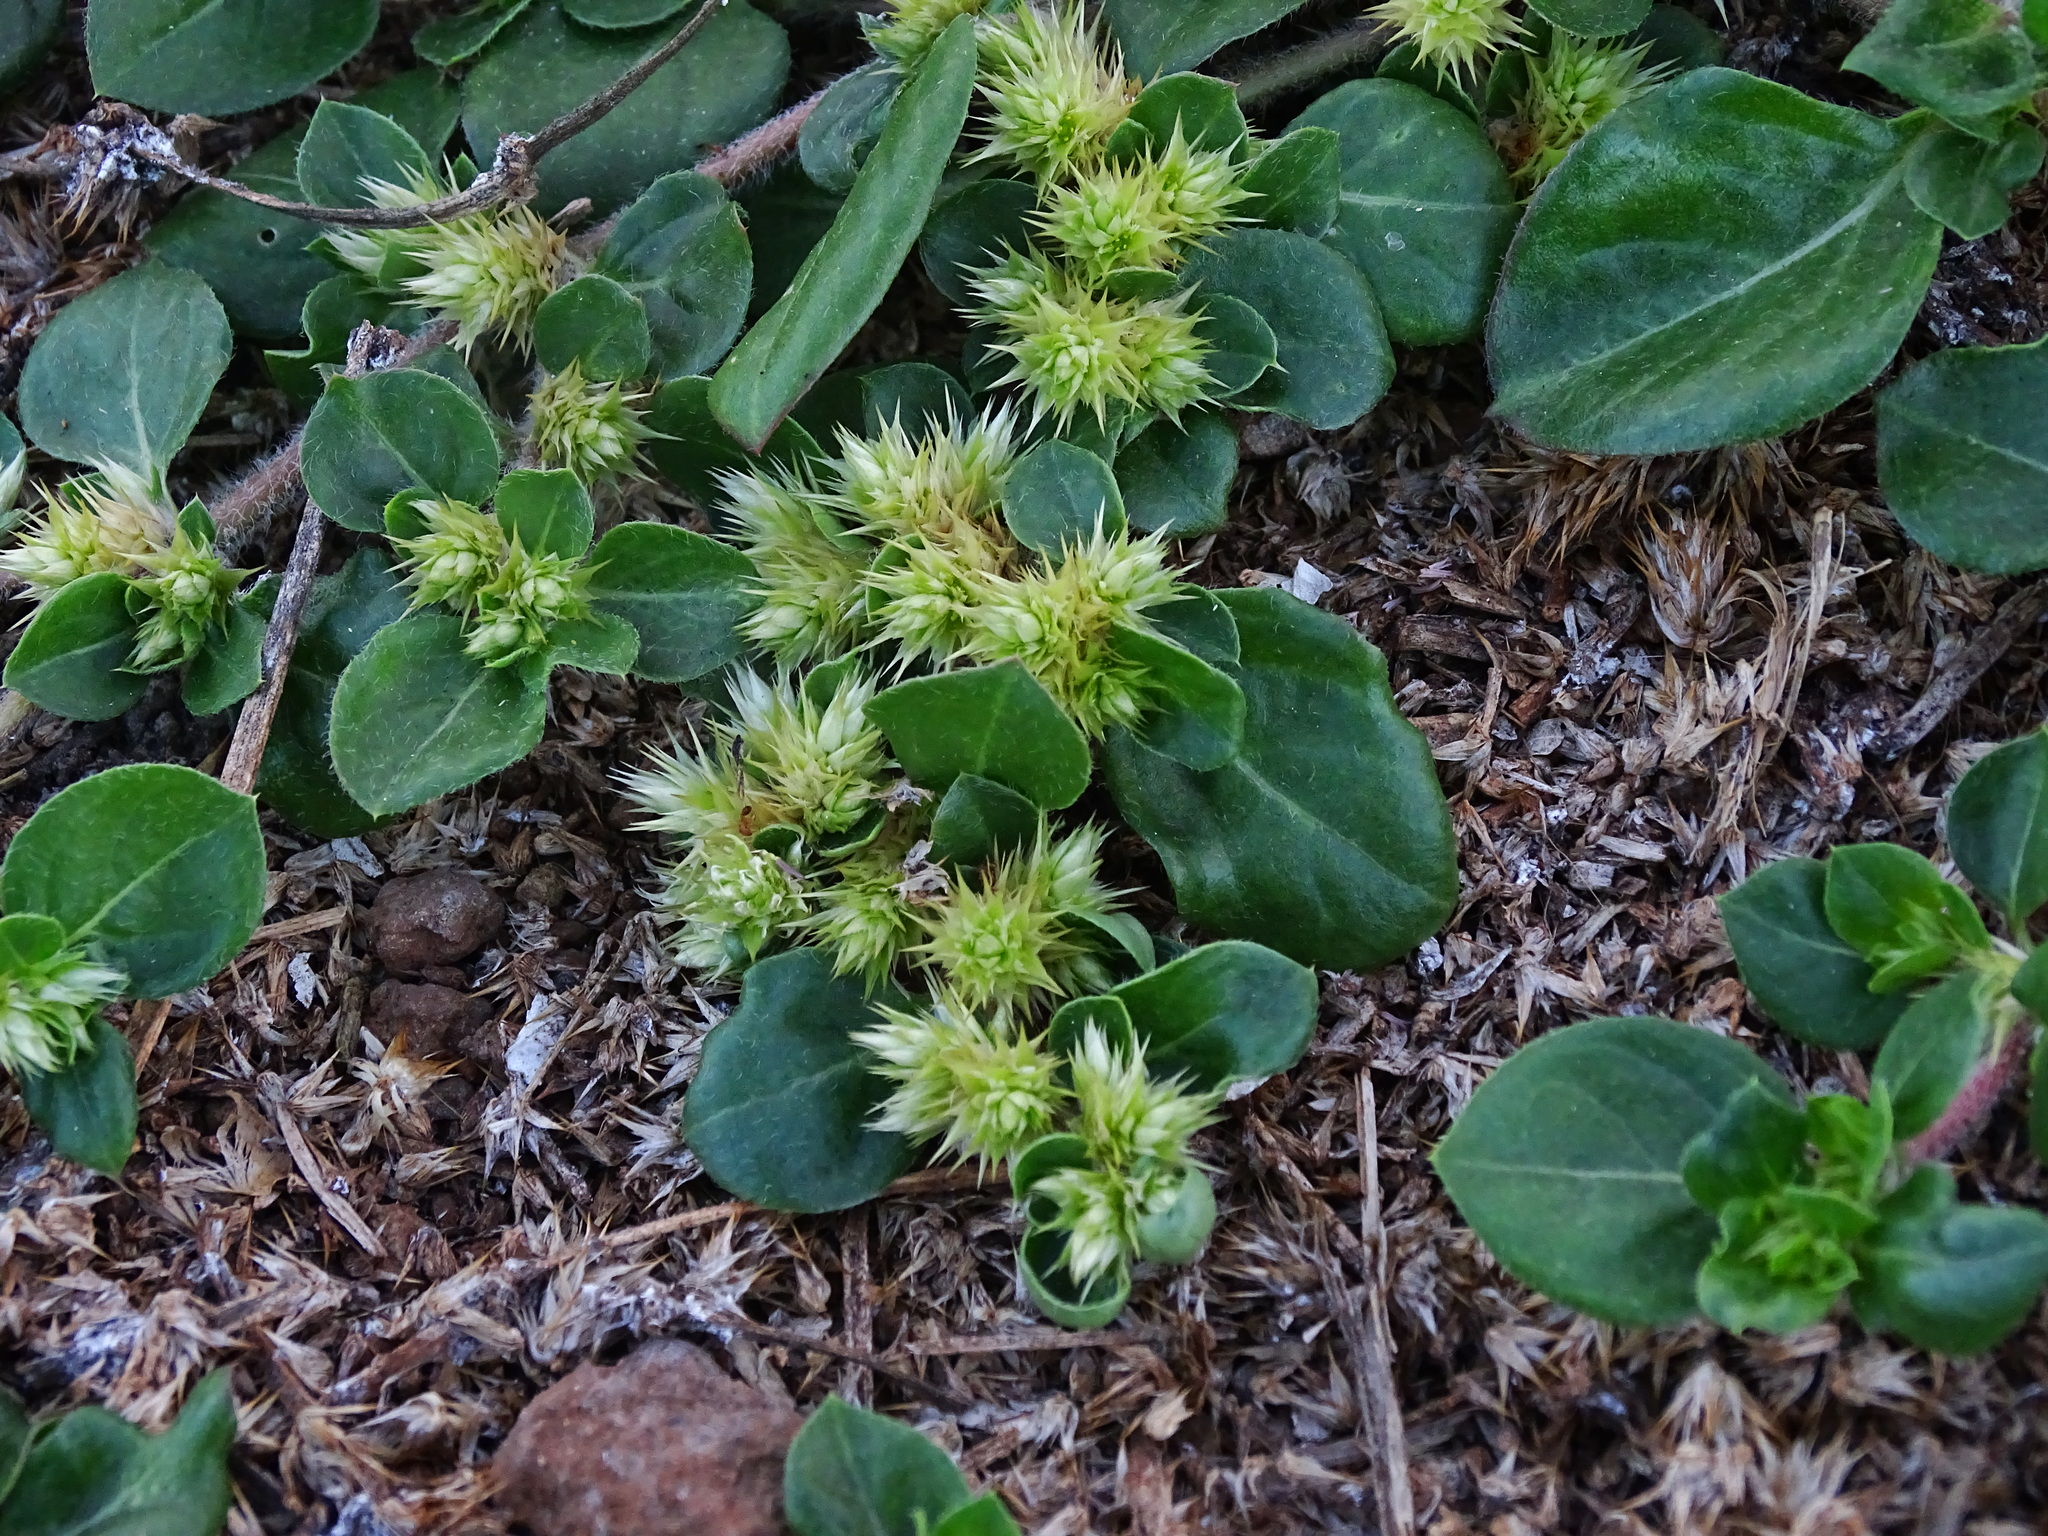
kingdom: Plantae
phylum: Tracheophyta
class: Magnoliopsida
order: Caryophyllales
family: Amaranthaceae
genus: Alternanthera
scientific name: Alternanthera pungens
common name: Khakiweed
